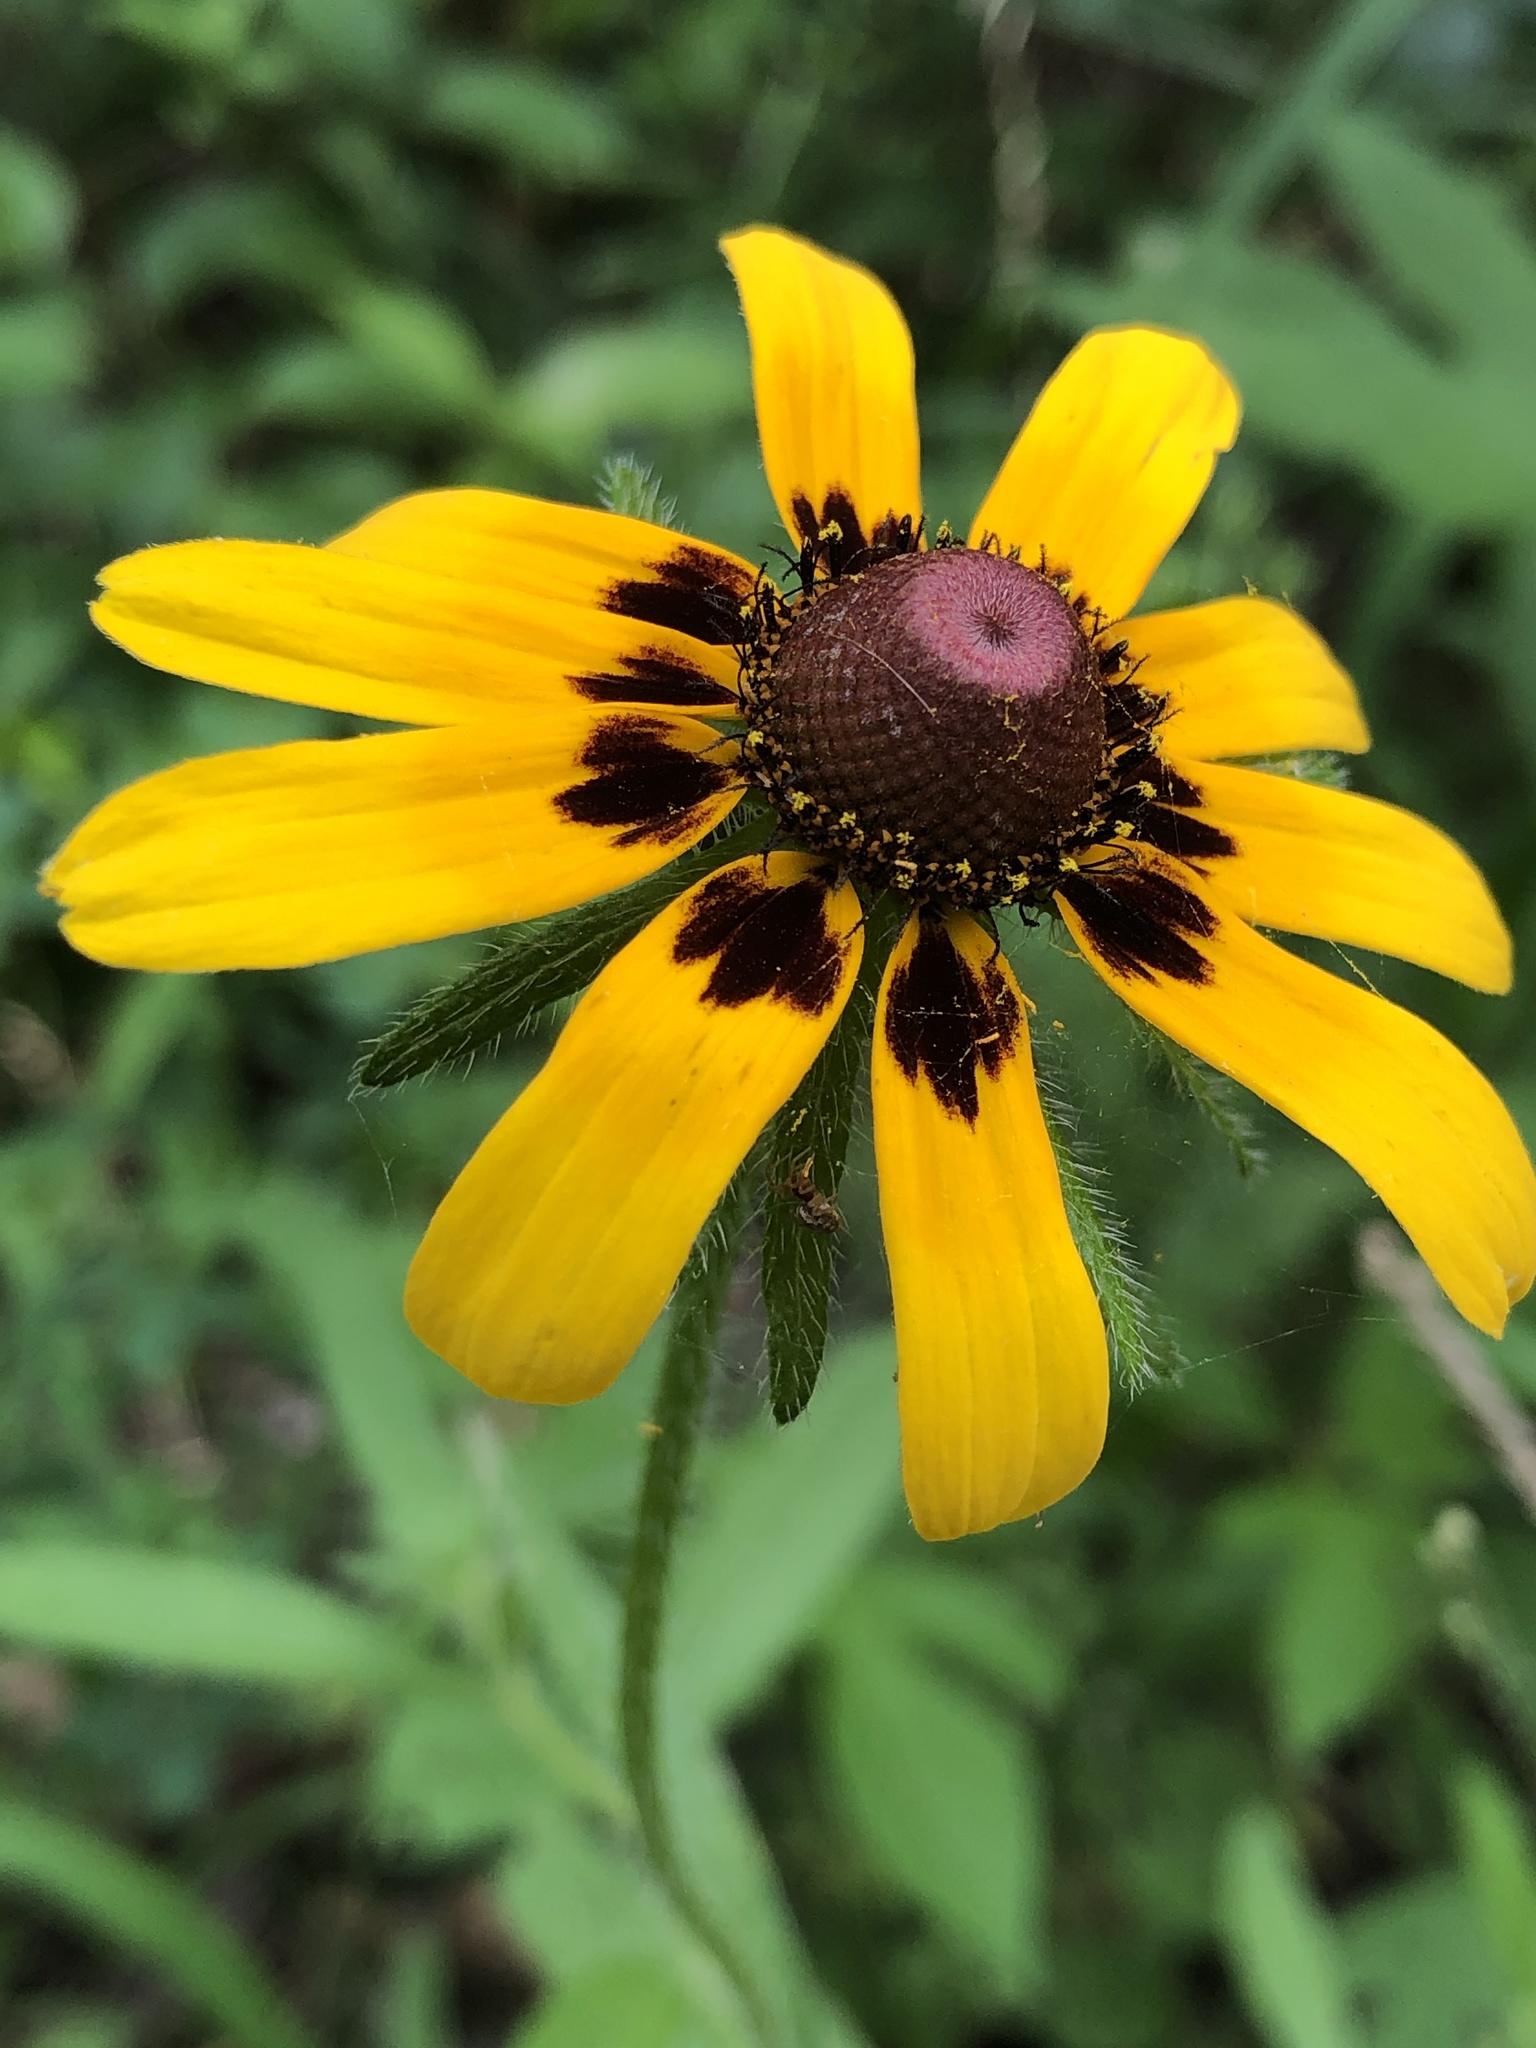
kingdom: Plantae
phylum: Tracheophyta
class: Magnoliopsida
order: Asterales
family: Asteraceae
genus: Rudbeckia
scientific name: Rudbeckia hirta
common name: Black-eyed-susan
